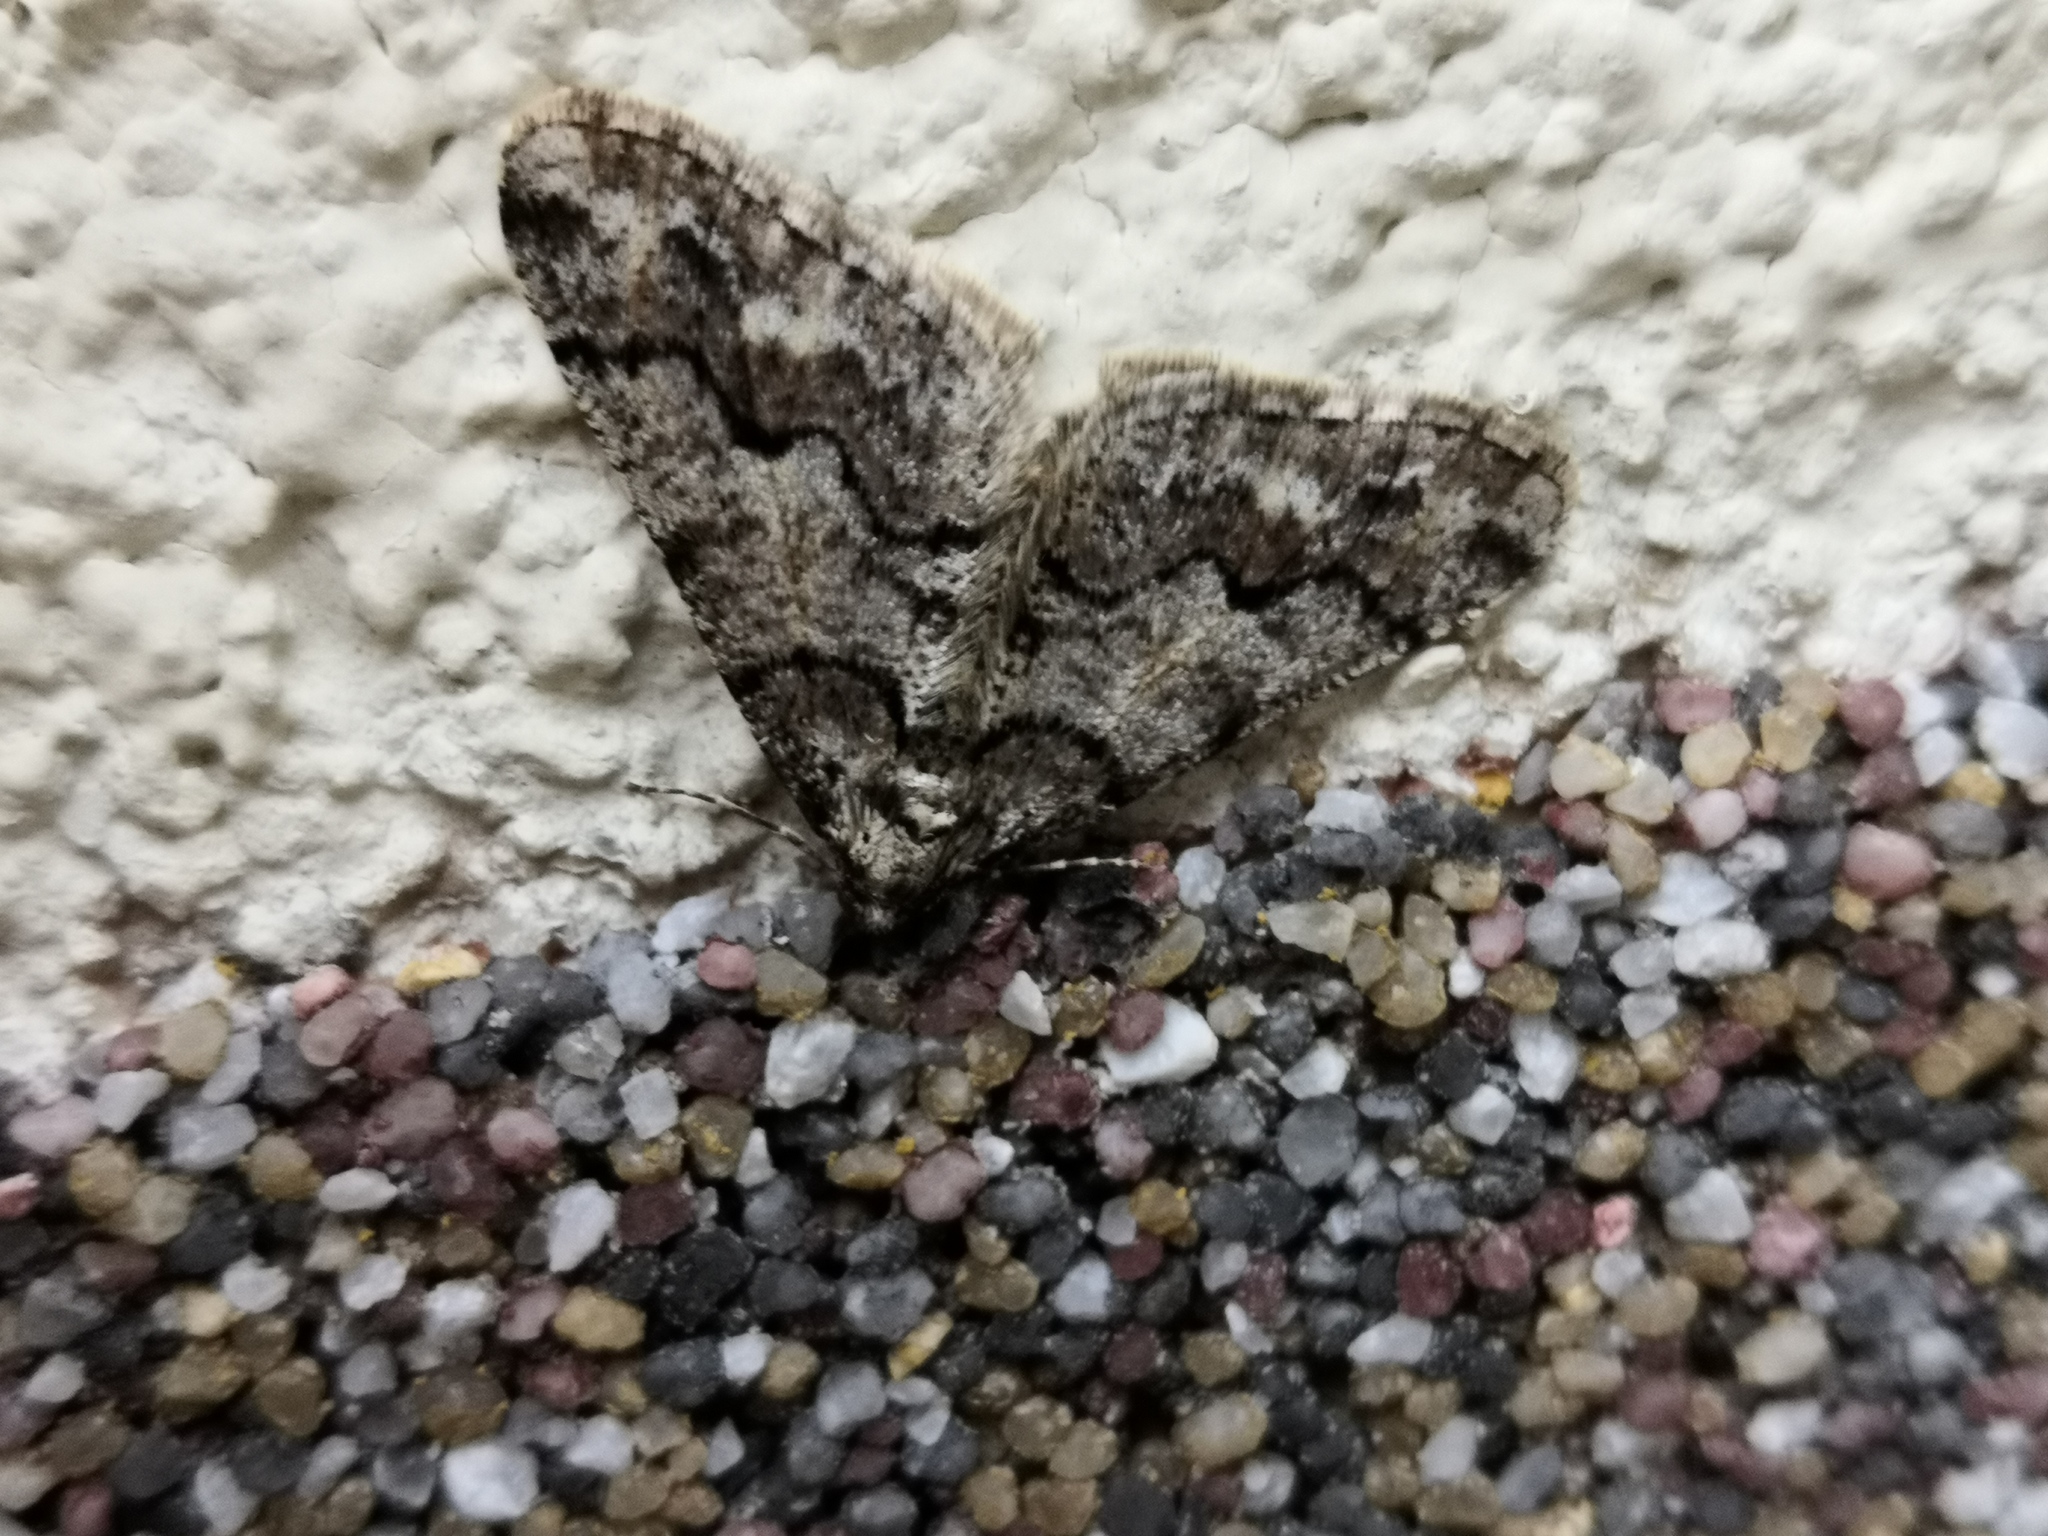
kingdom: Animalia
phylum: Arthropoda
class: Insecta
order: Lepidoptera
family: Geometridae
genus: Agriopis
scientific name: Agriopis leucophaearia
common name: Spring usher
